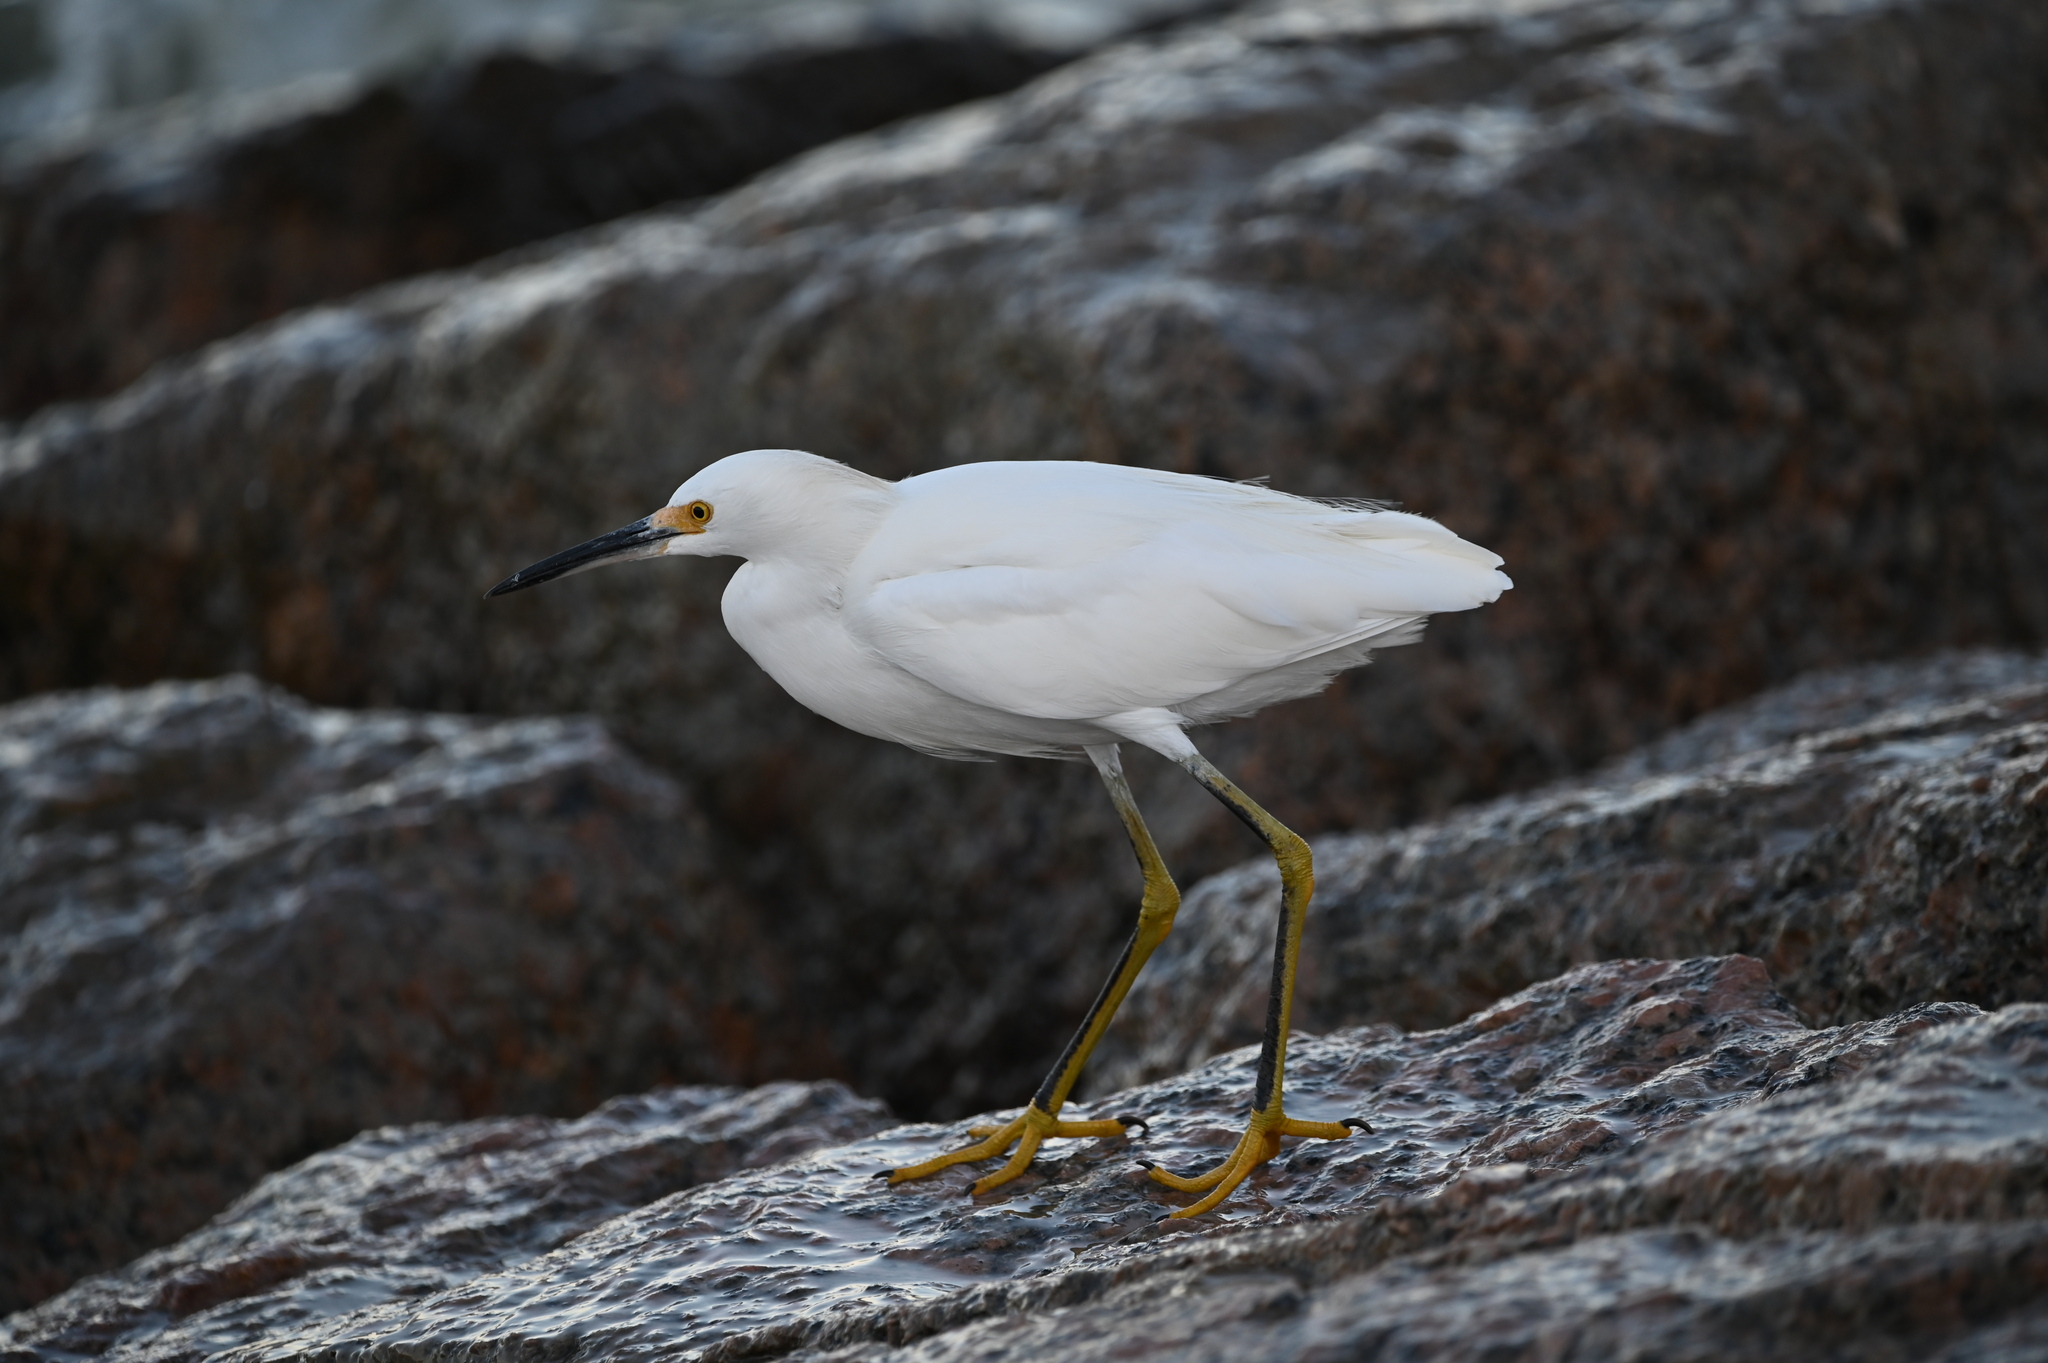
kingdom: Animalia
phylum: Chordata
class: Aves
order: Pelecaniformes
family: Ardeidae
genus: Egretta
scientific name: Egretta thula
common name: Snowy egret
